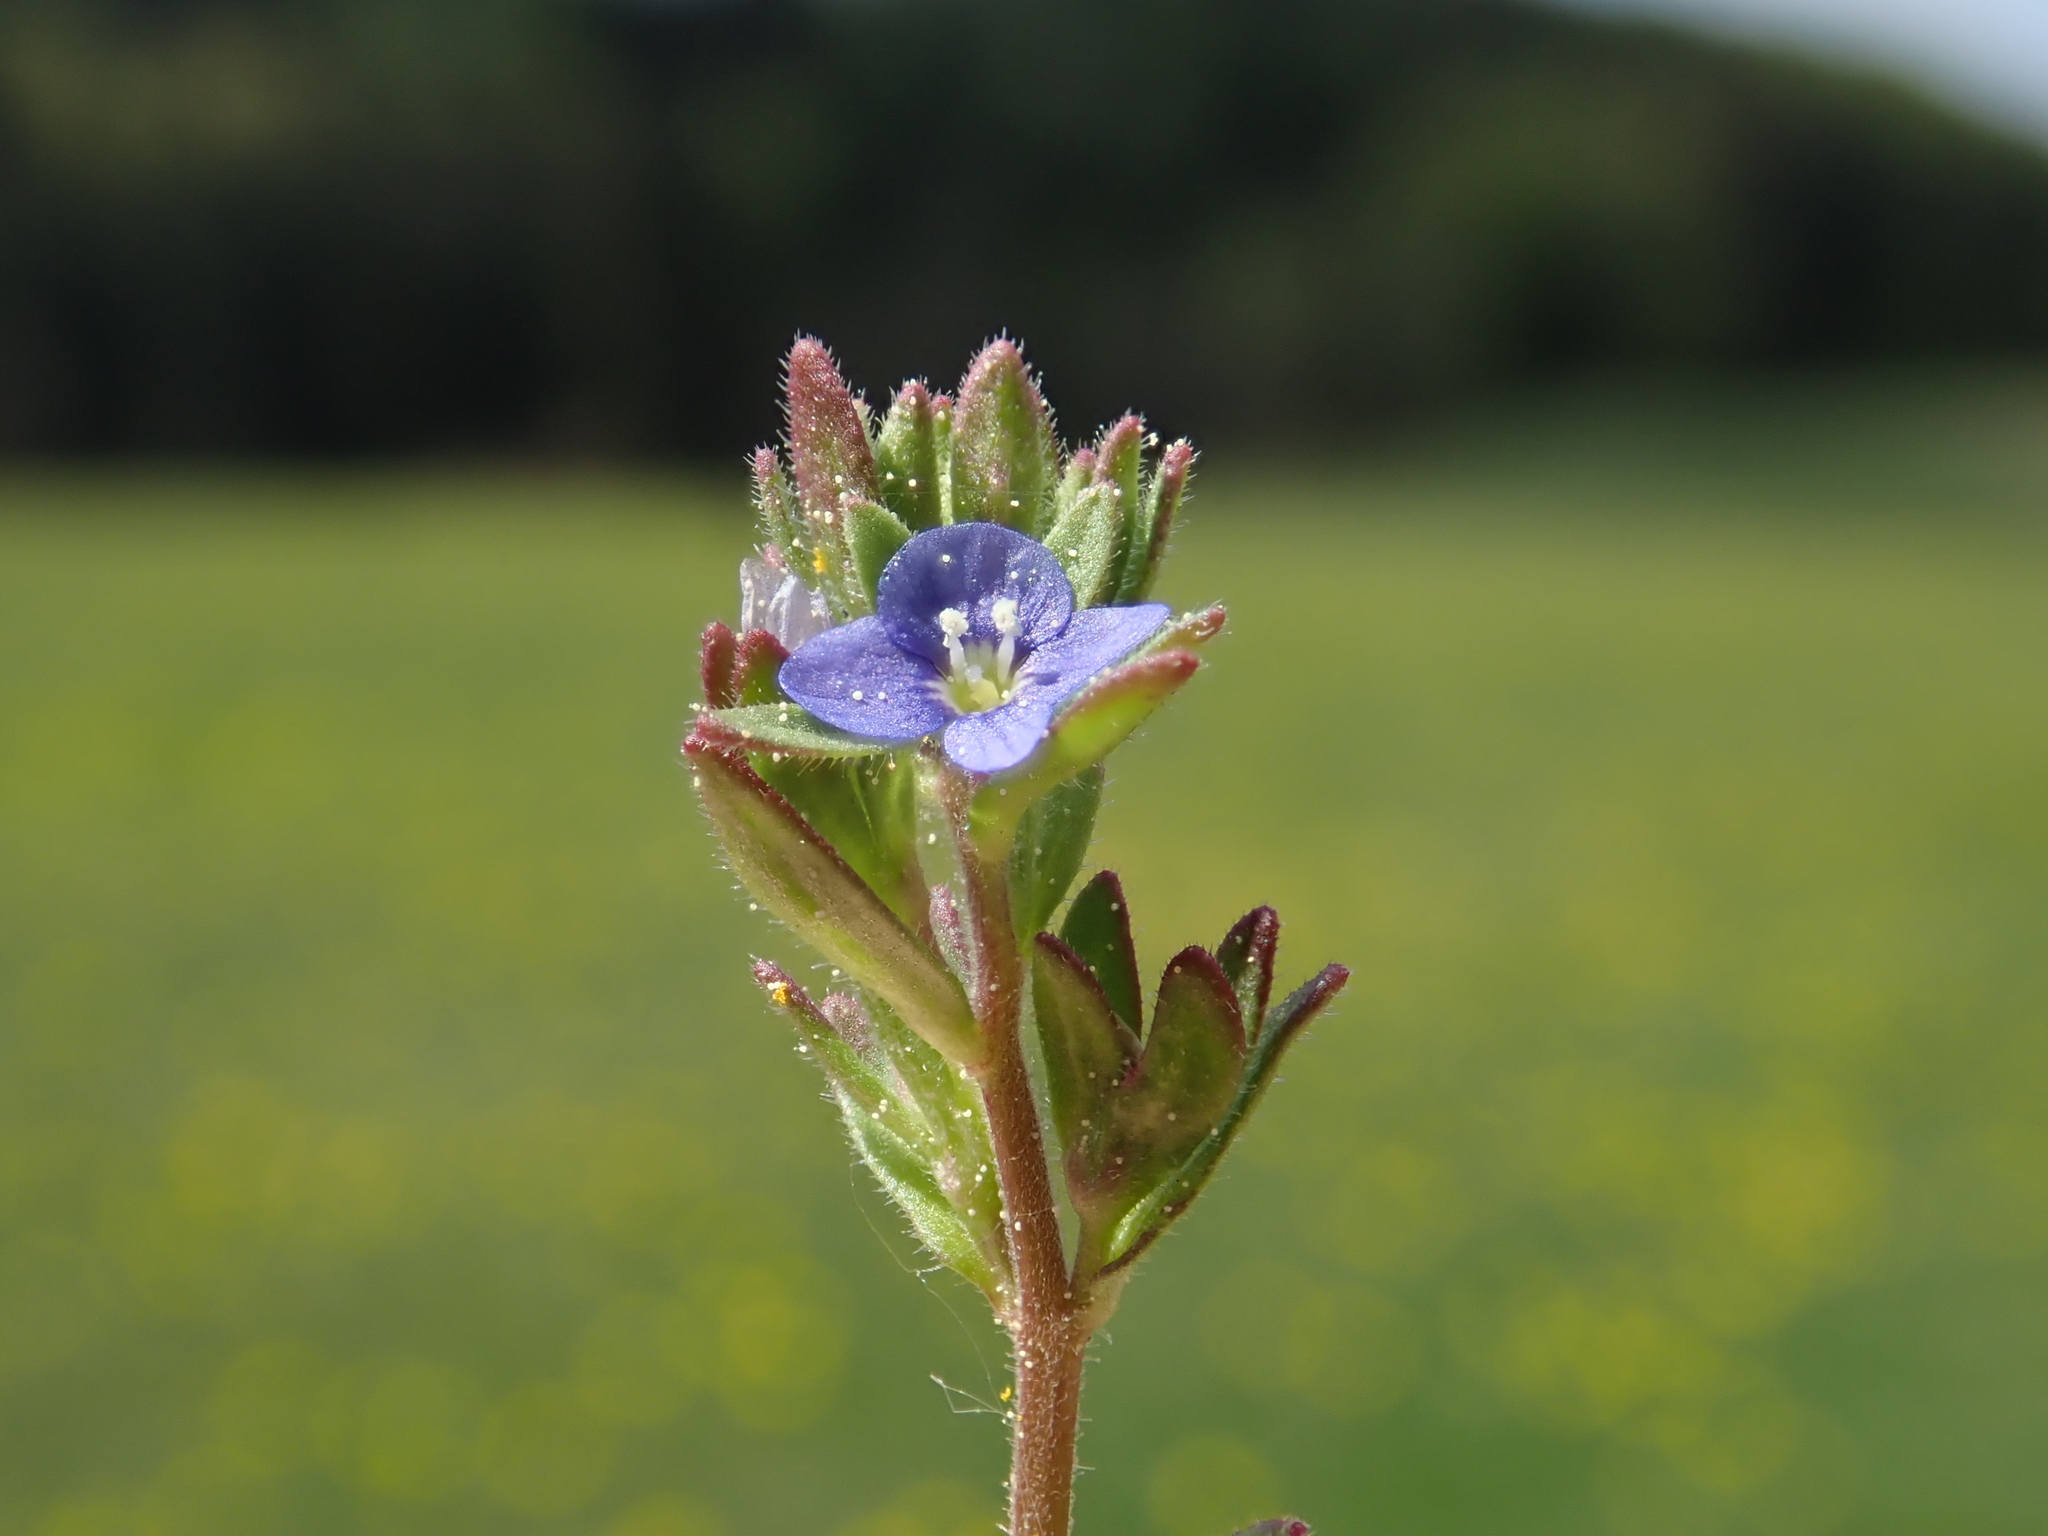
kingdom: Plantae
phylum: Tracheophyta
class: Magnoliopsida
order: Lamiales
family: Plantaginaceae
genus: Veronica
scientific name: Veronica arvensis
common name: Corn speedwell
